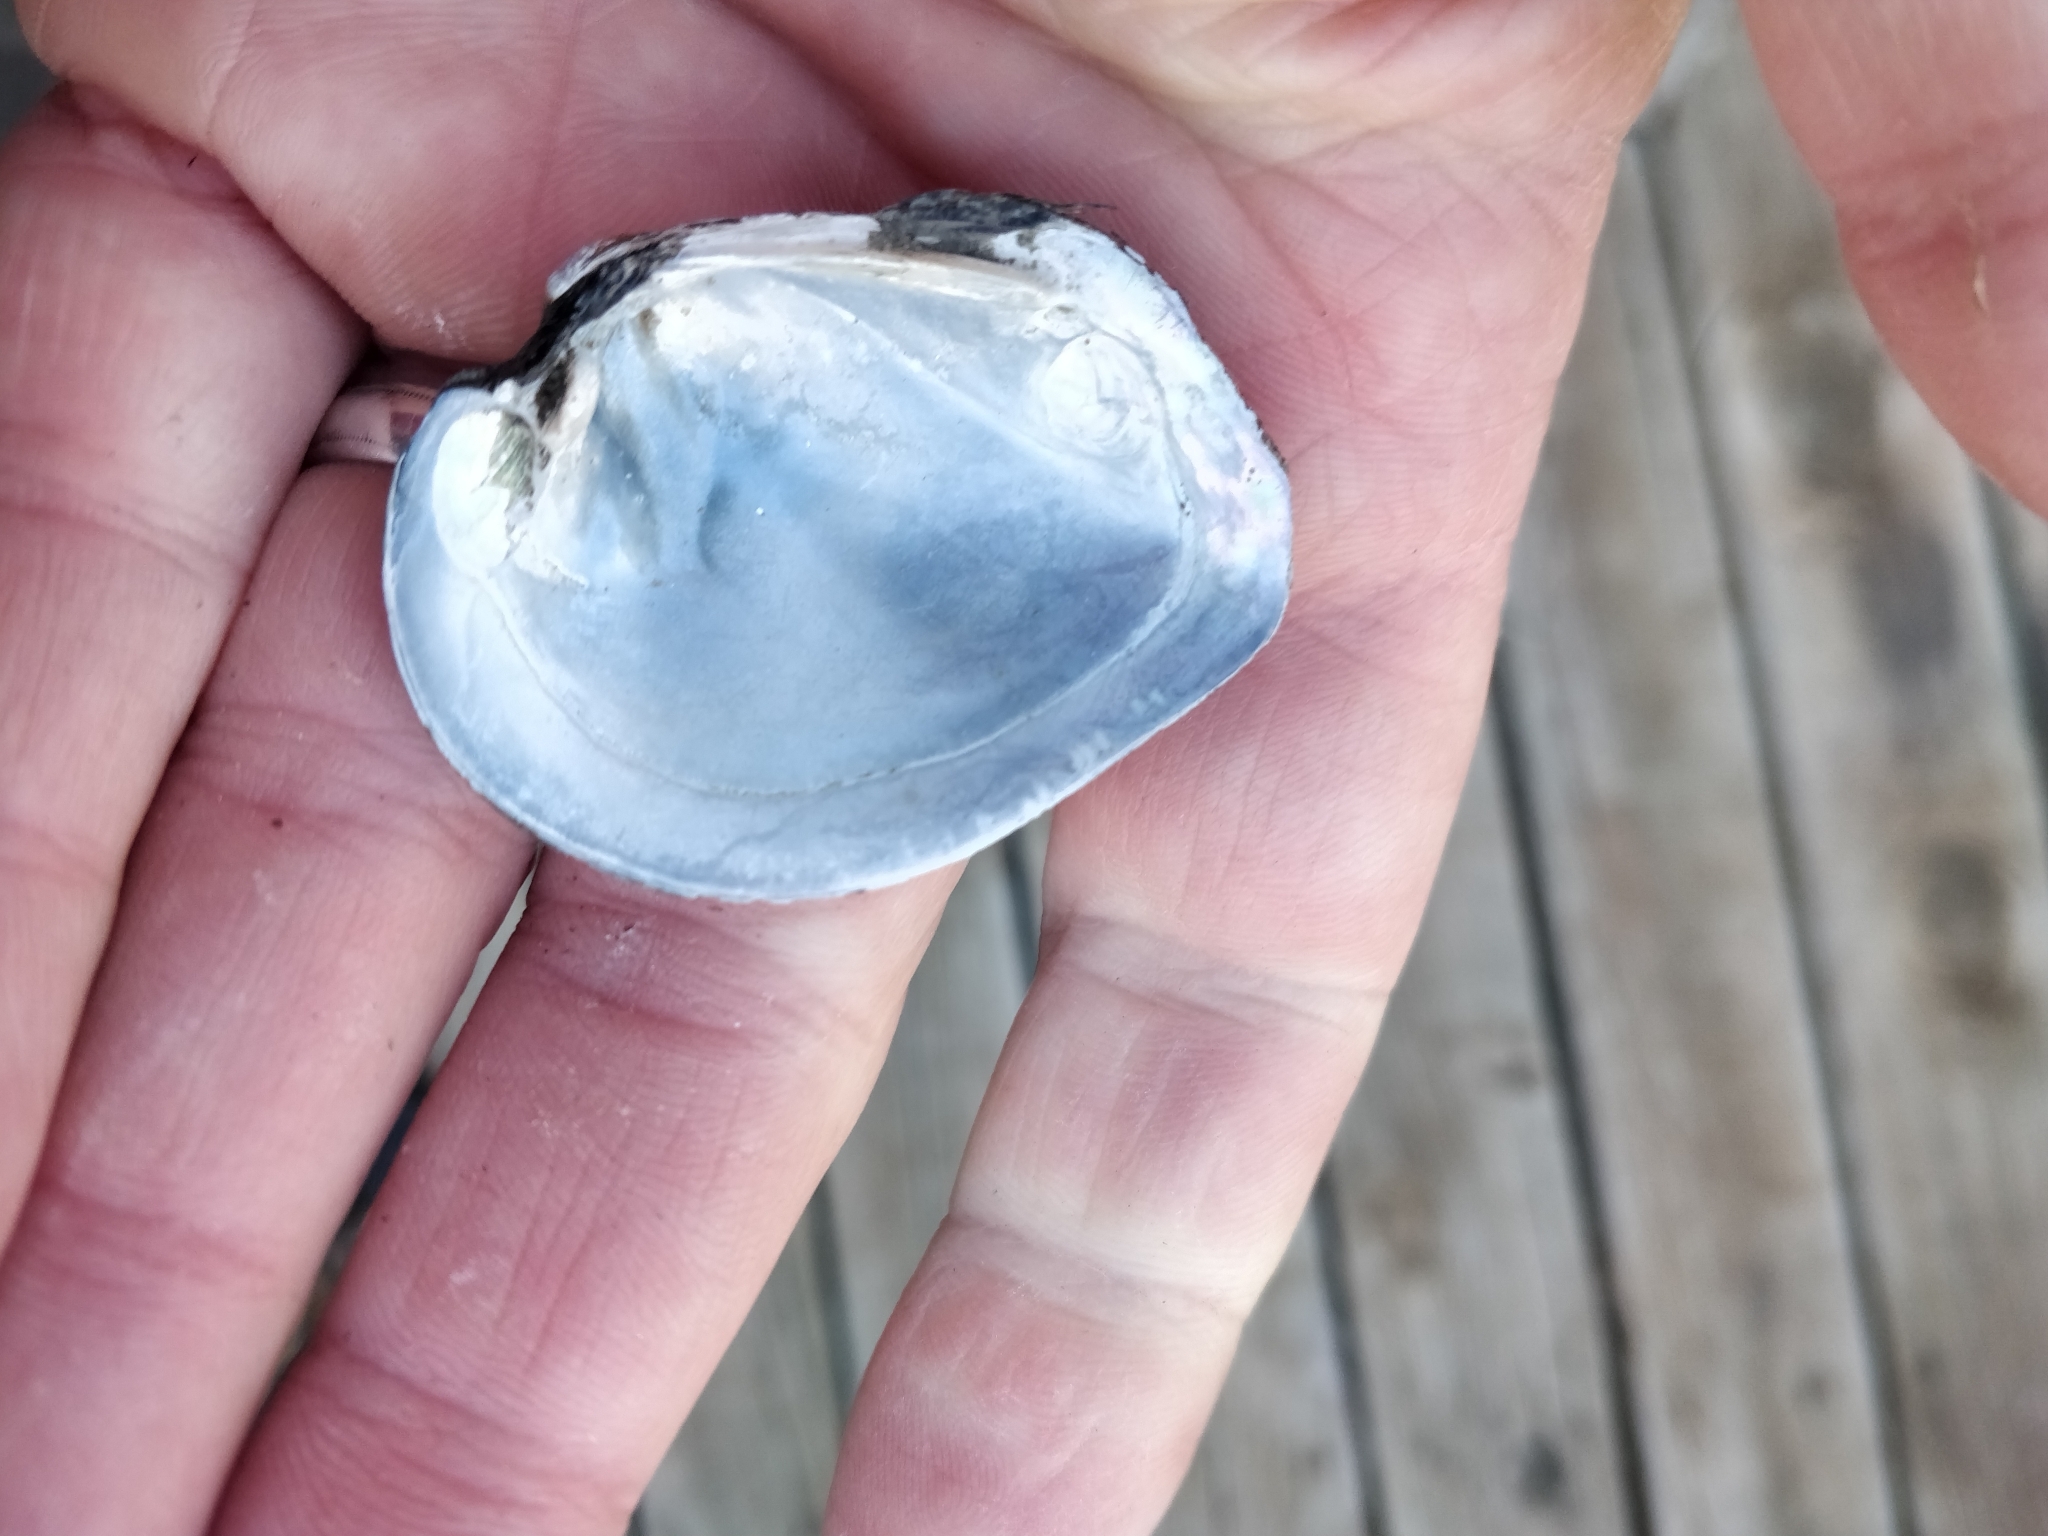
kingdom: Animalia
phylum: Mollusca
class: Bivalvia
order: Unionida
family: Unionidae
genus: Fusconaia
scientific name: Fusconaia flava
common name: Wabash pigtoe
